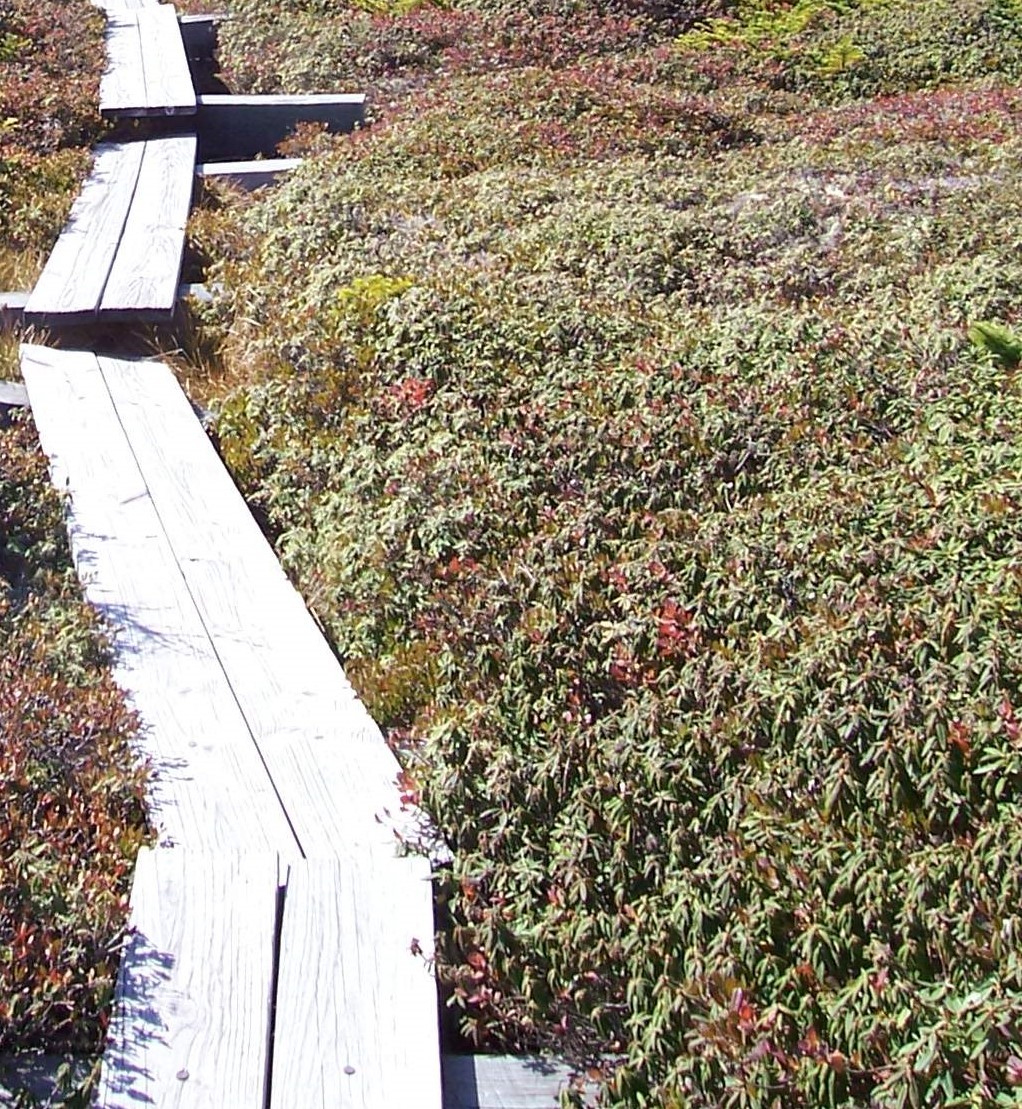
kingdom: Plantae
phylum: Tracheophyta
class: Magnoliopsida
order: Ericales
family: Ericaceae
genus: Rhododendron
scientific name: Rhododendron groenlandicum
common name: Bog labrador tea
